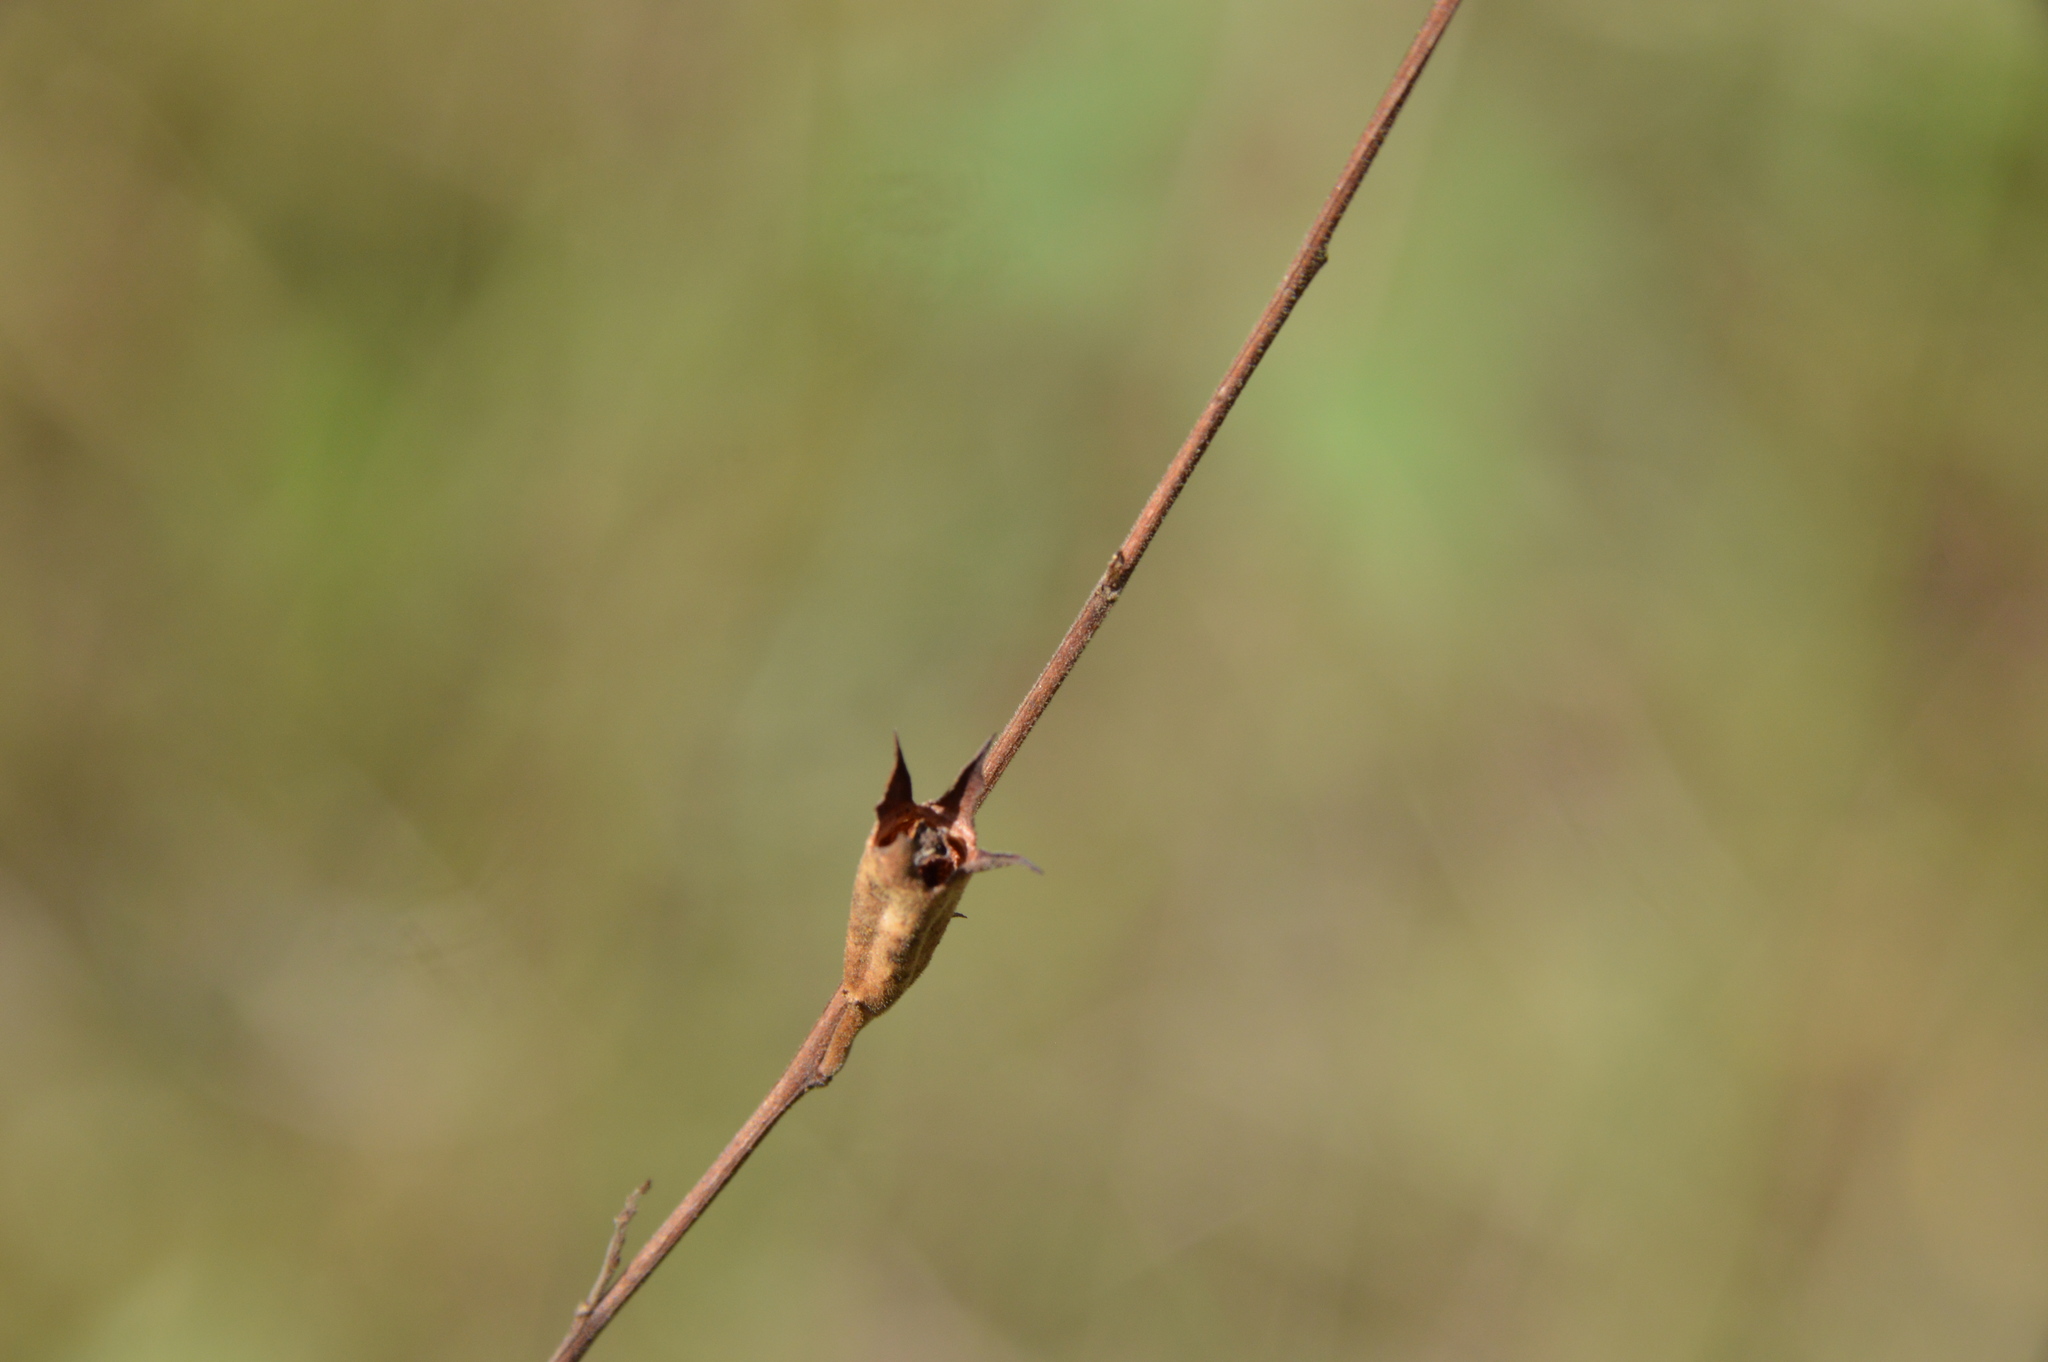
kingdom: Plantae
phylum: Tracheophyta
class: Magnoliopsida
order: Myrtales
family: Onagraceae
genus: Ludwigia
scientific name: Ludwigia linearis
